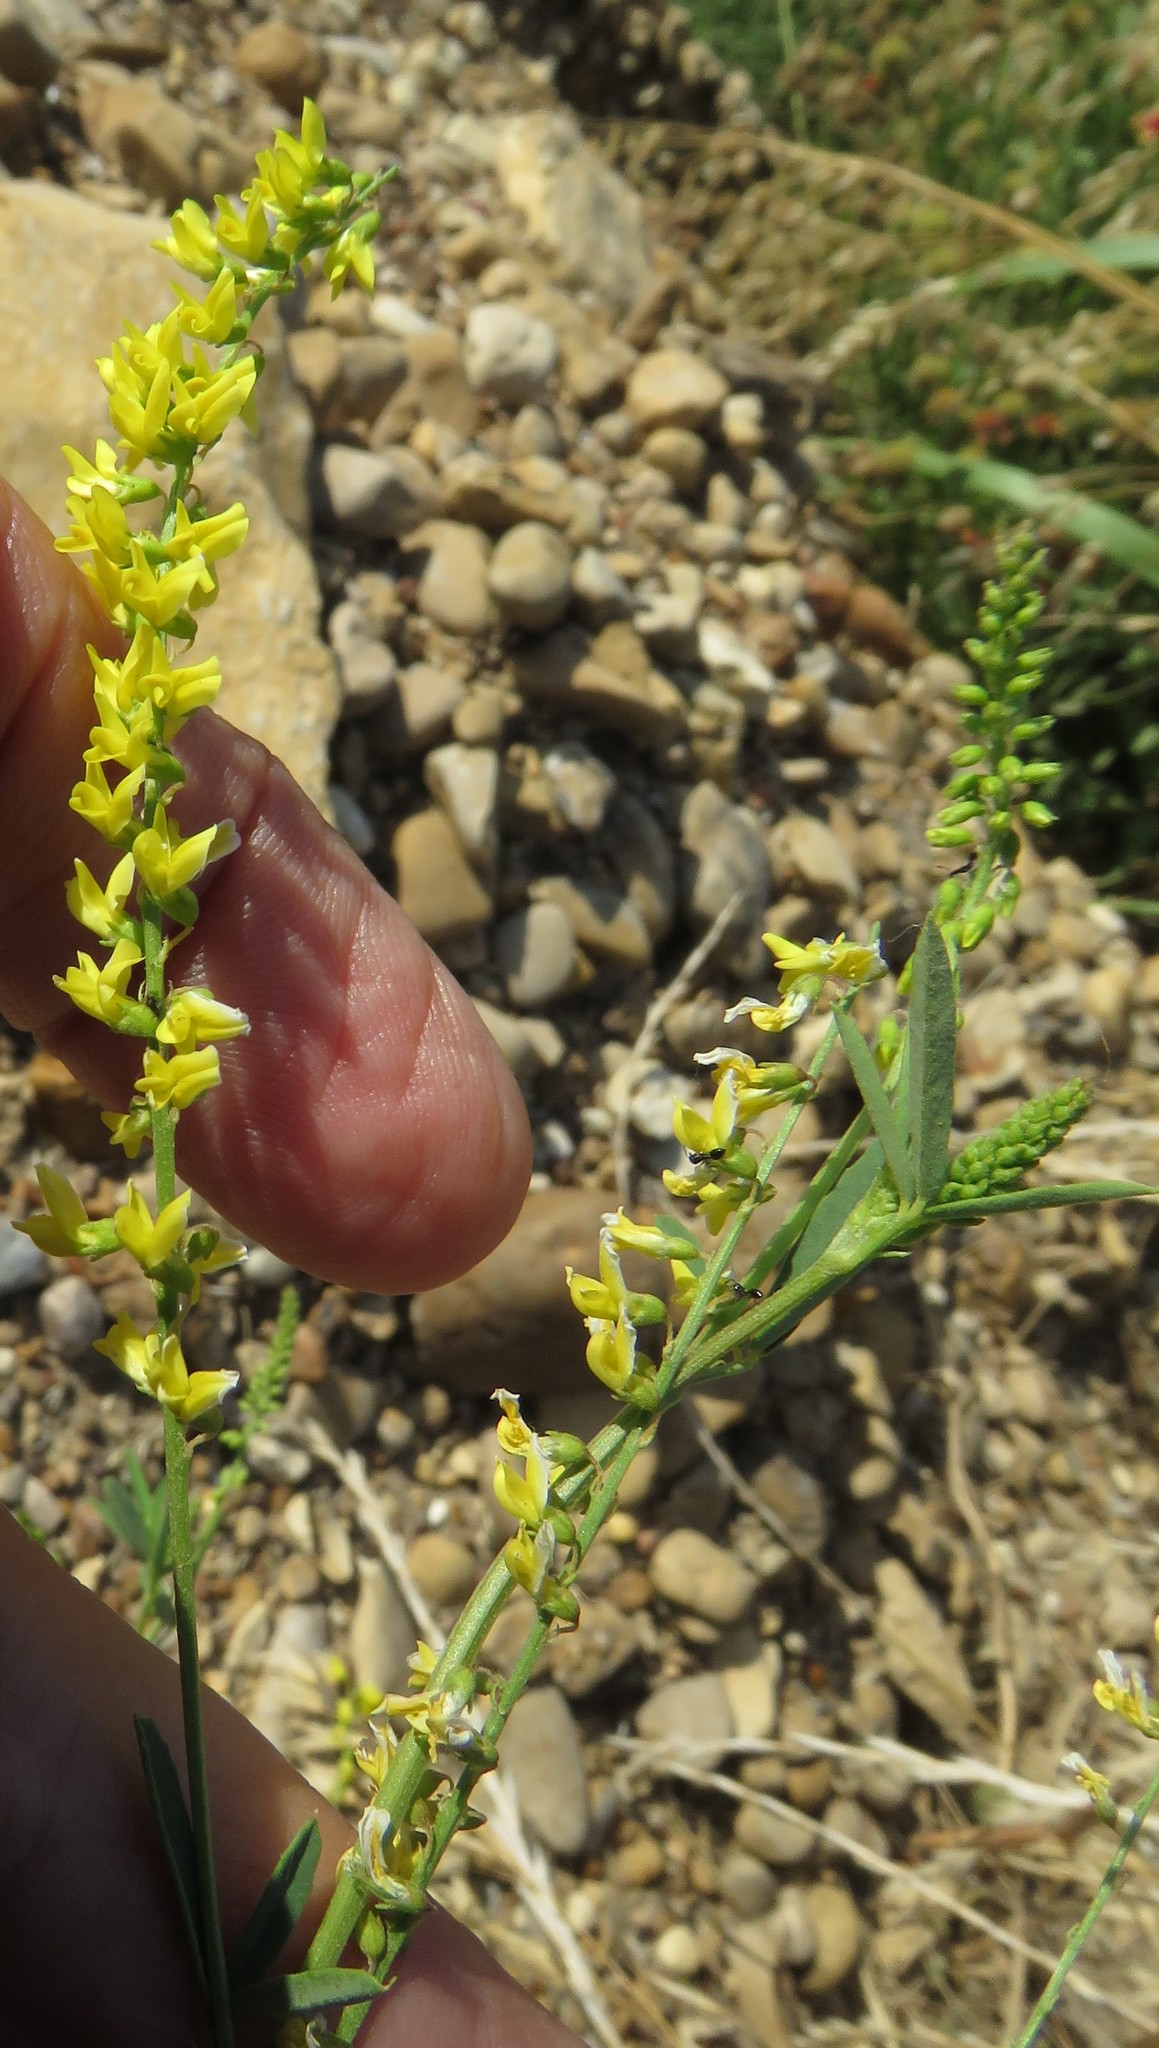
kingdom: Plantae
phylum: Tracheophyta
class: Magnoliopsida
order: Fabales
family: Fabaceae
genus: Melilotus
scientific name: Melilotus officinalis
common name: Sweetclover
